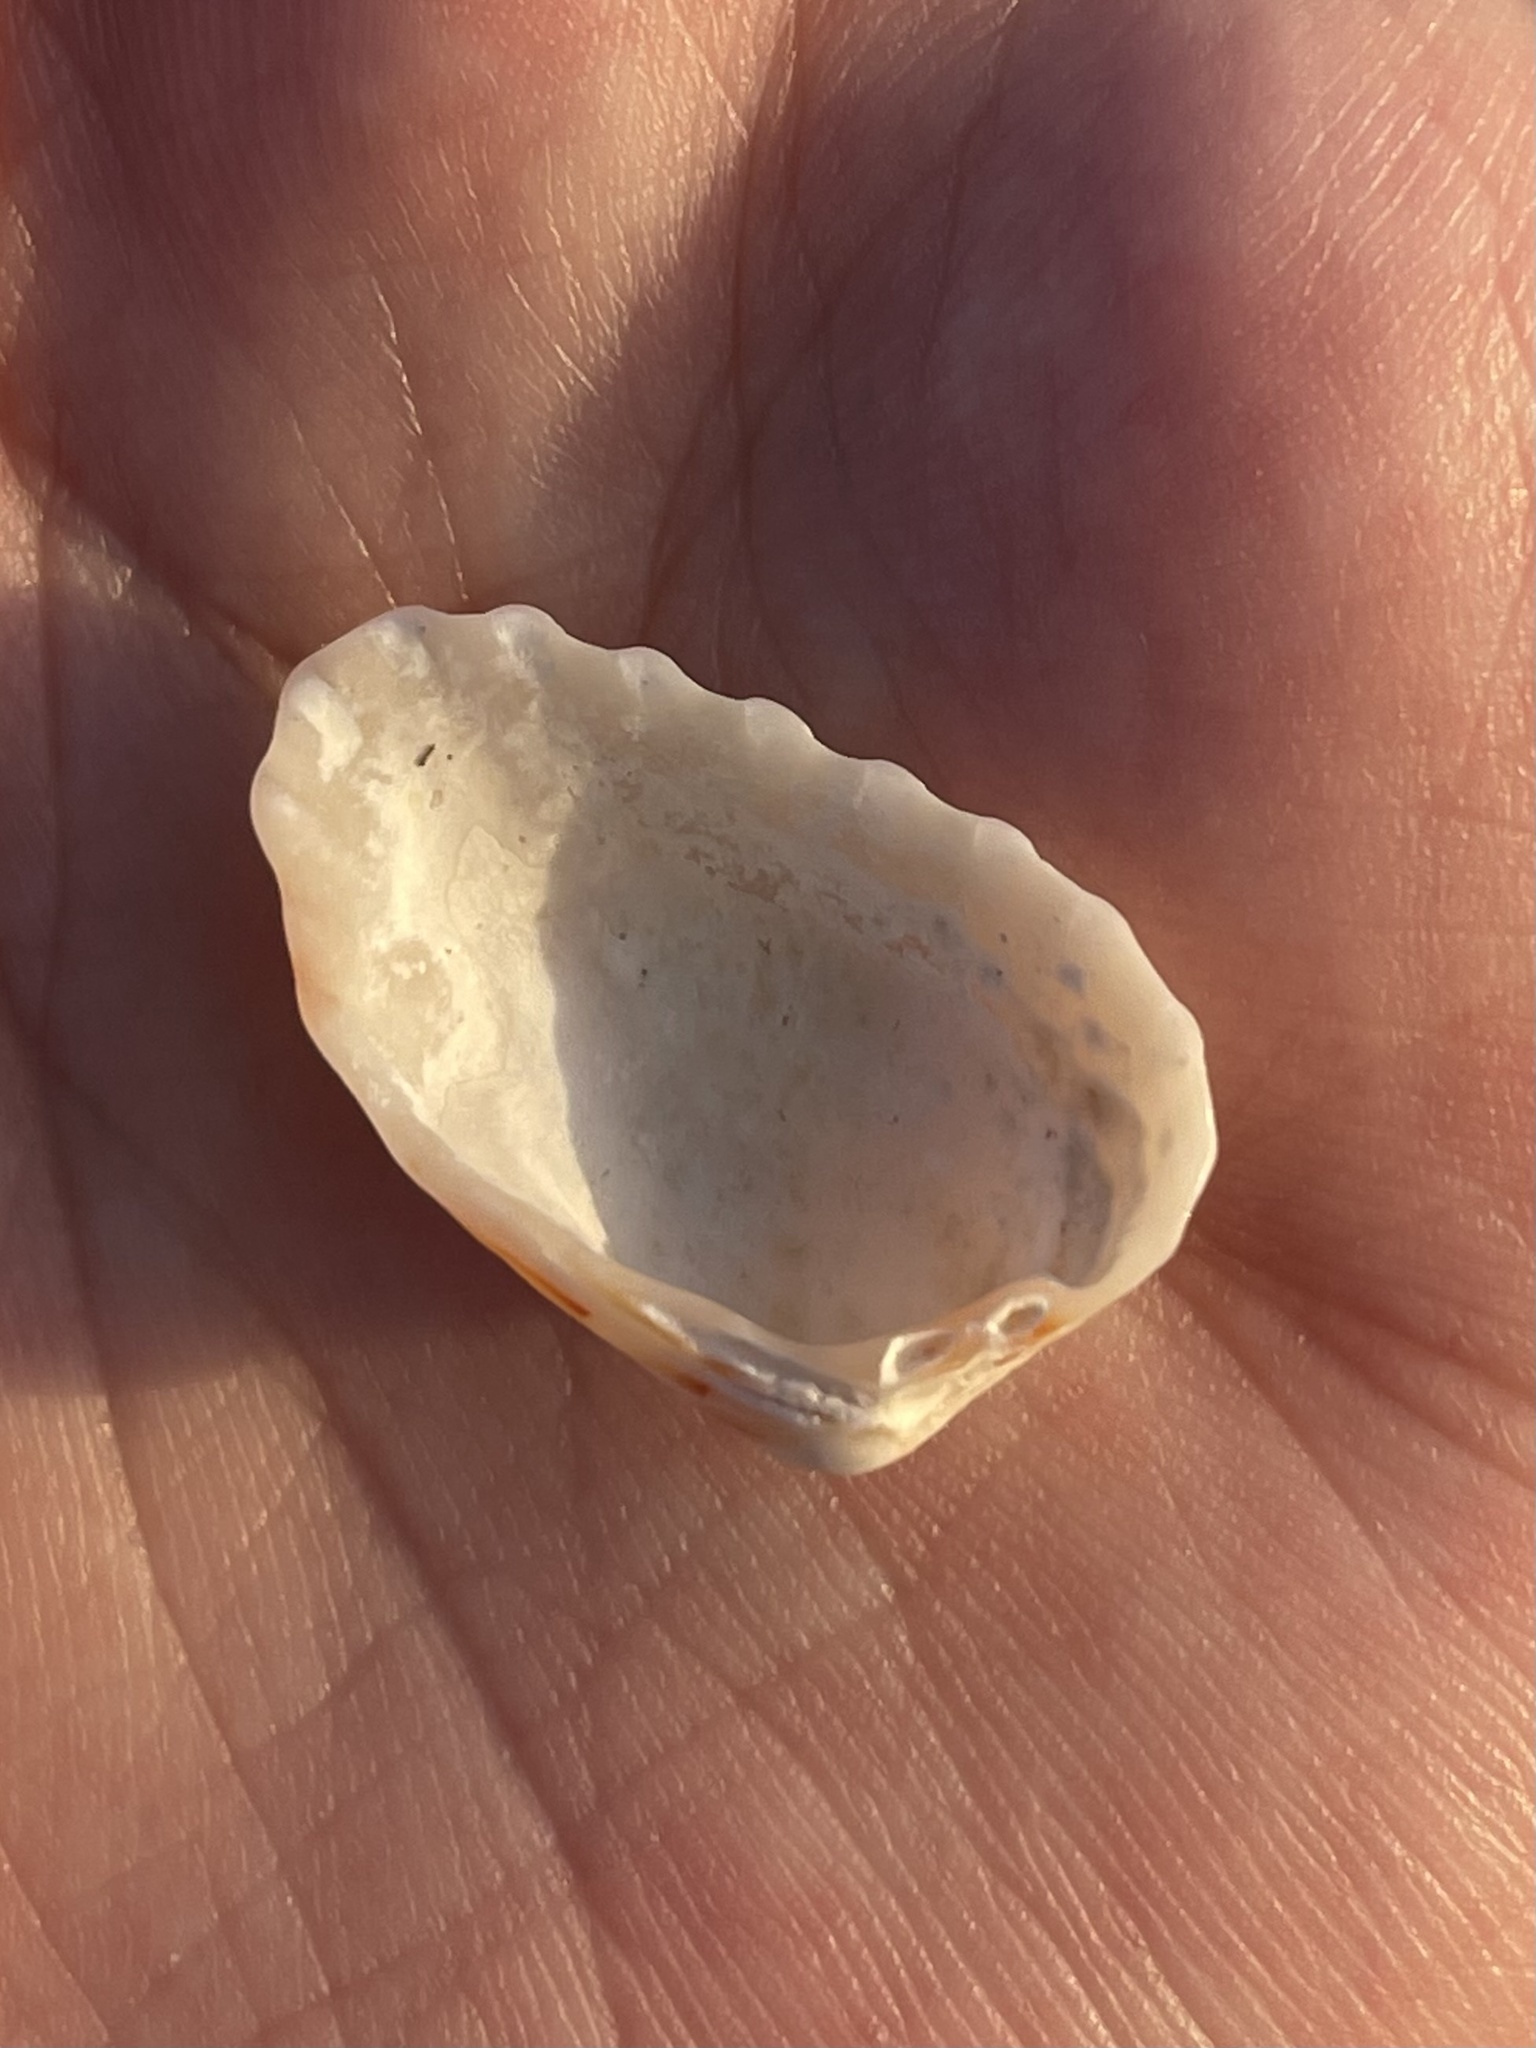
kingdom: Animalia
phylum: Mollusca
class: Bivalvia
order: Carditida
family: Carditidae
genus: Cardites
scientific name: Cardites floridanus
